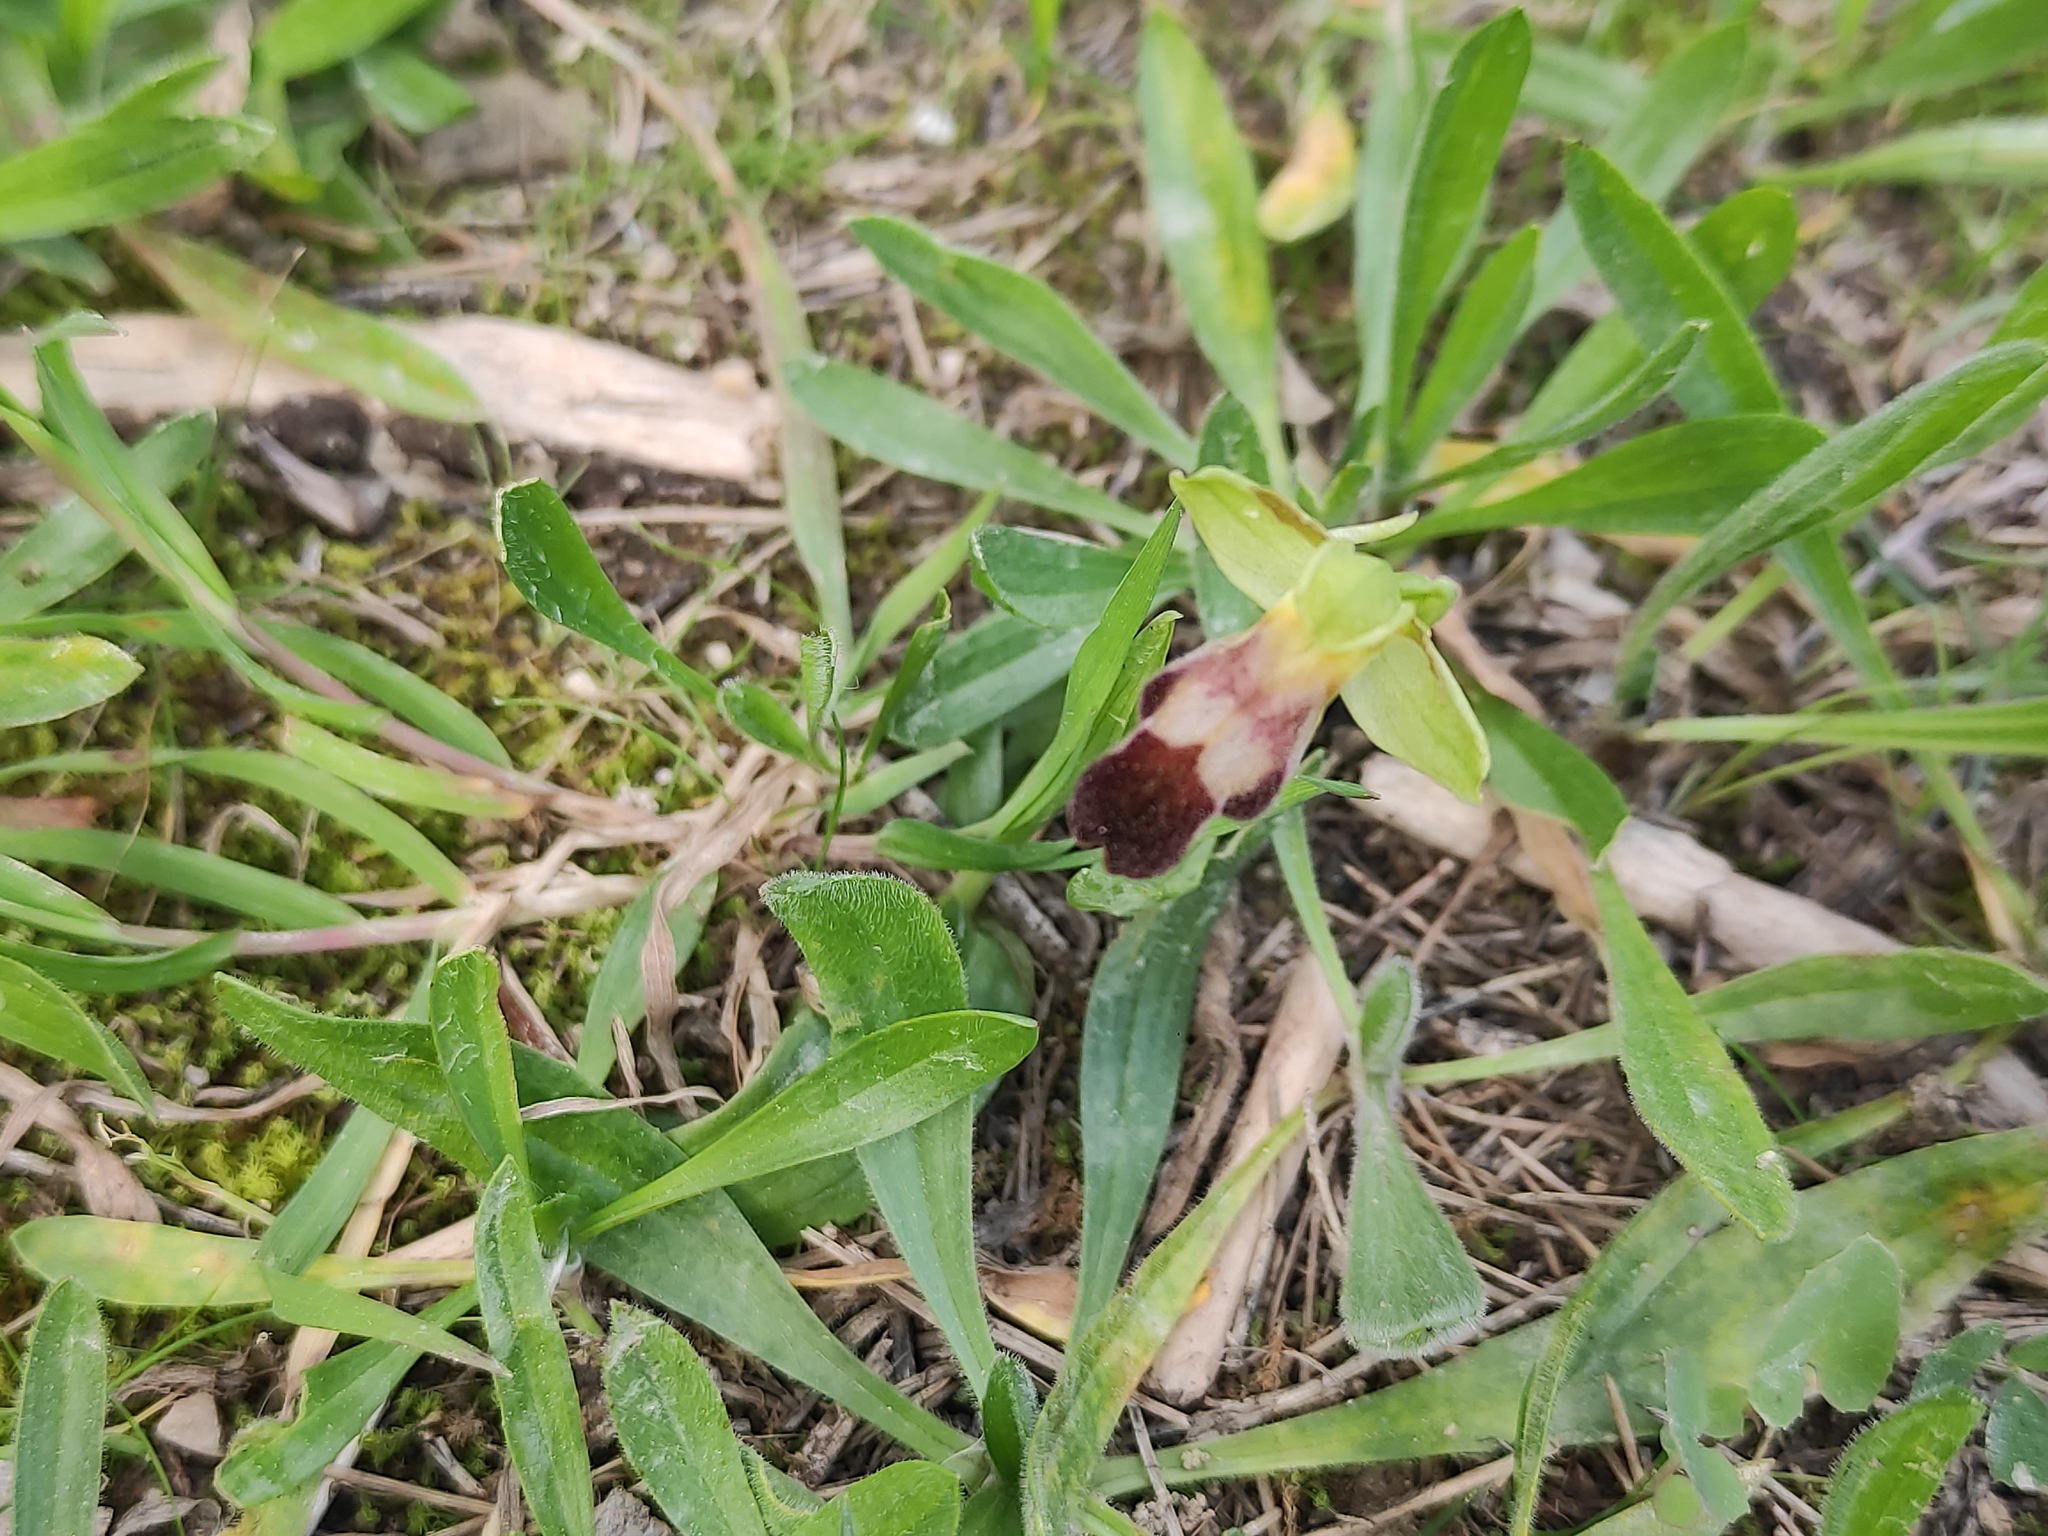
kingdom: Plantae
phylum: Tracheophyta
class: Liliopsida
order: Asparagales
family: Orchidaceae
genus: Ophrys
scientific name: Ophrys fusca
